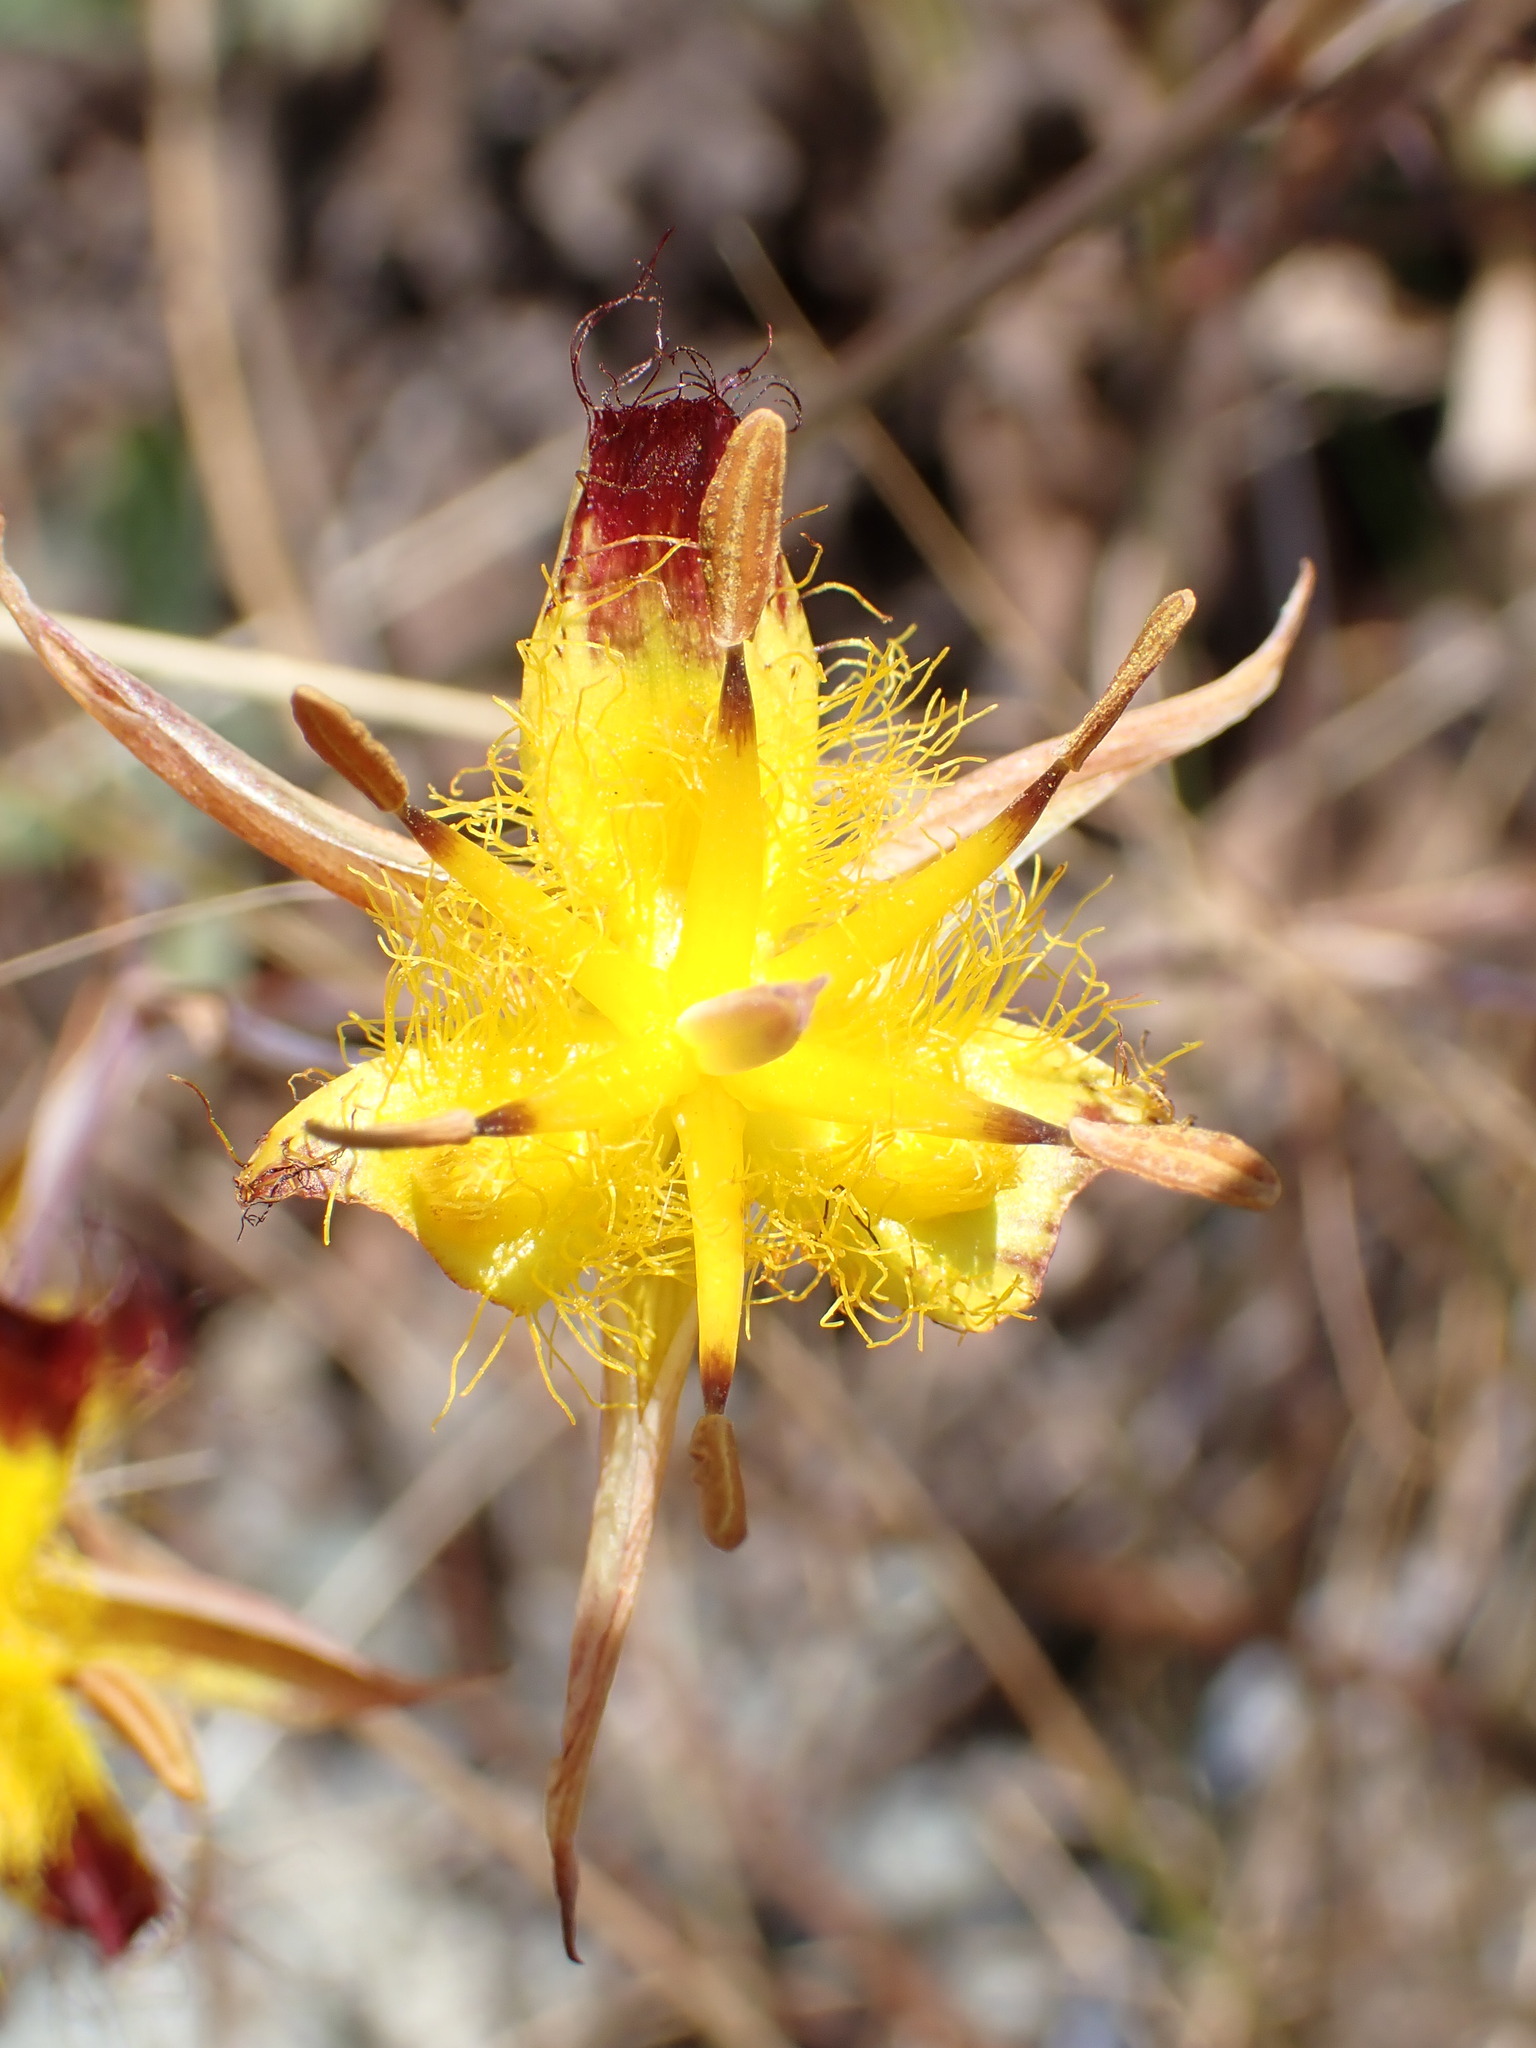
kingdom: Plantae
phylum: Tracheophyta
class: Liliopsida
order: Liliales
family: Liliaceae
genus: Calochortus
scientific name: Calochortus obispoensis
